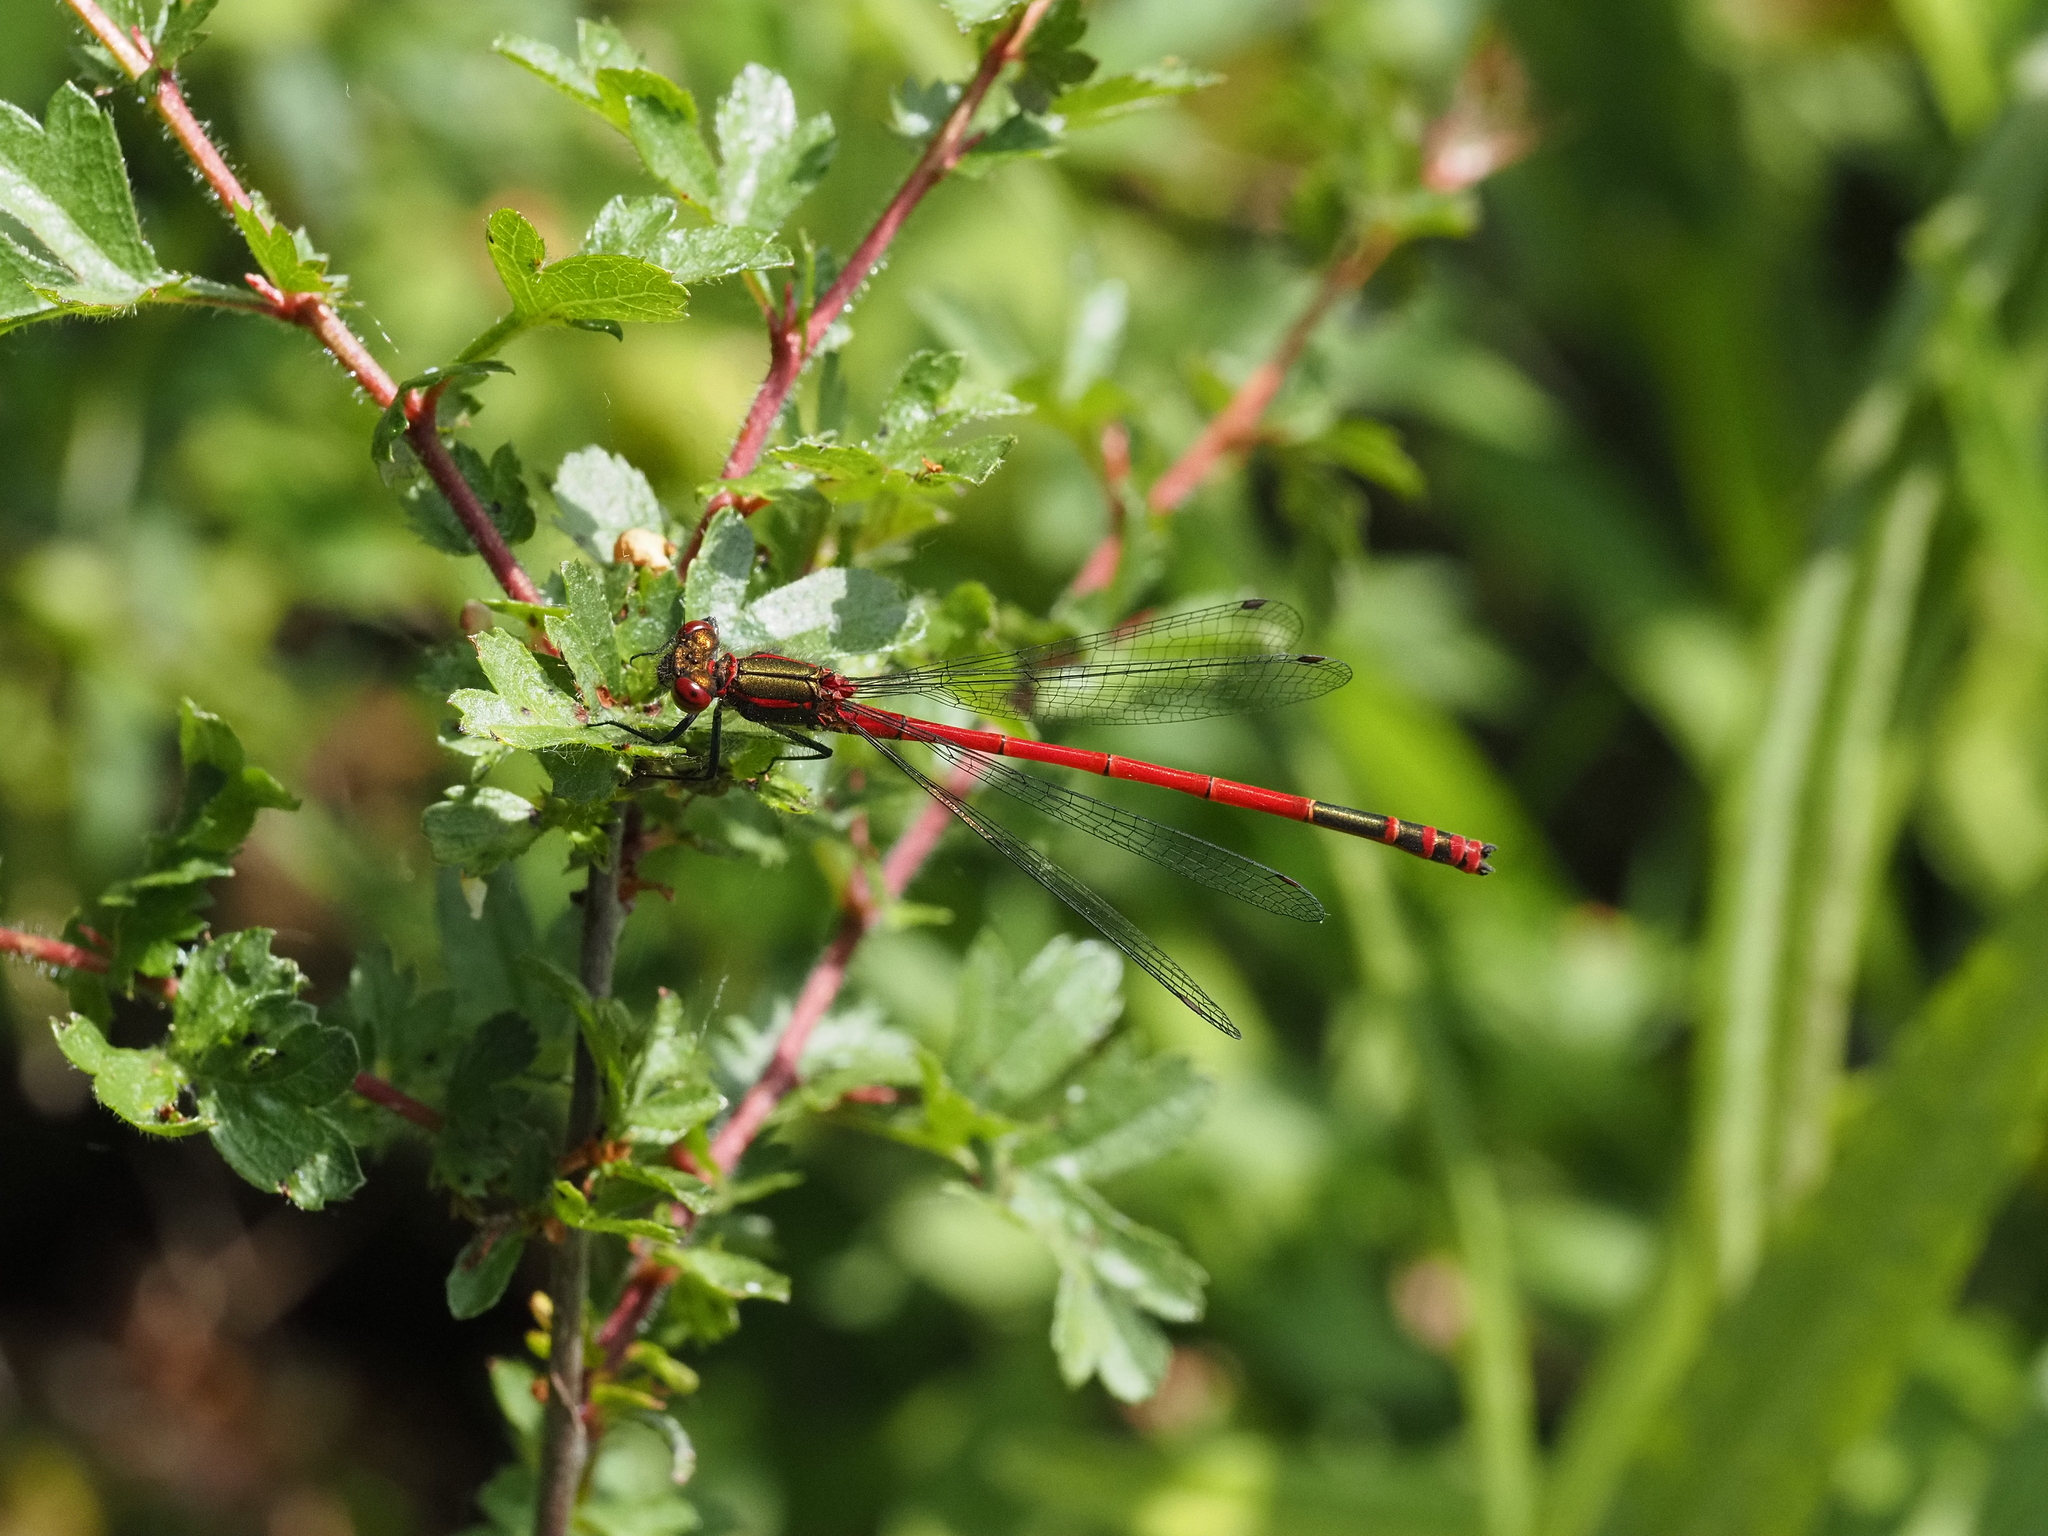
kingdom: Animalia
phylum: Arthropoda
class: Insecta
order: Odonata
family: Coenagrionidae
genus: Pyrrhosoma
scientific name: Pyrrhosoma nymphula
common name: Large red damsel
